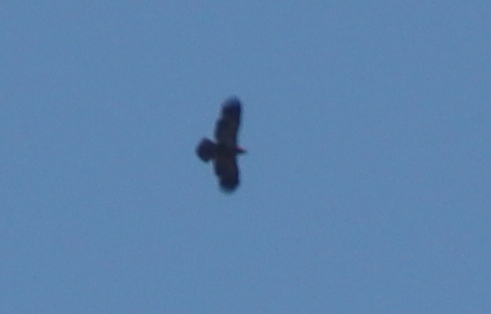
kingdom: Animalia
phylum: Chordata
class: Aves
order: Accipitriformes
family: Accipitridae
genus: Aquila
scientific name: Aquila chrysaetos
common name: Golden eagle
